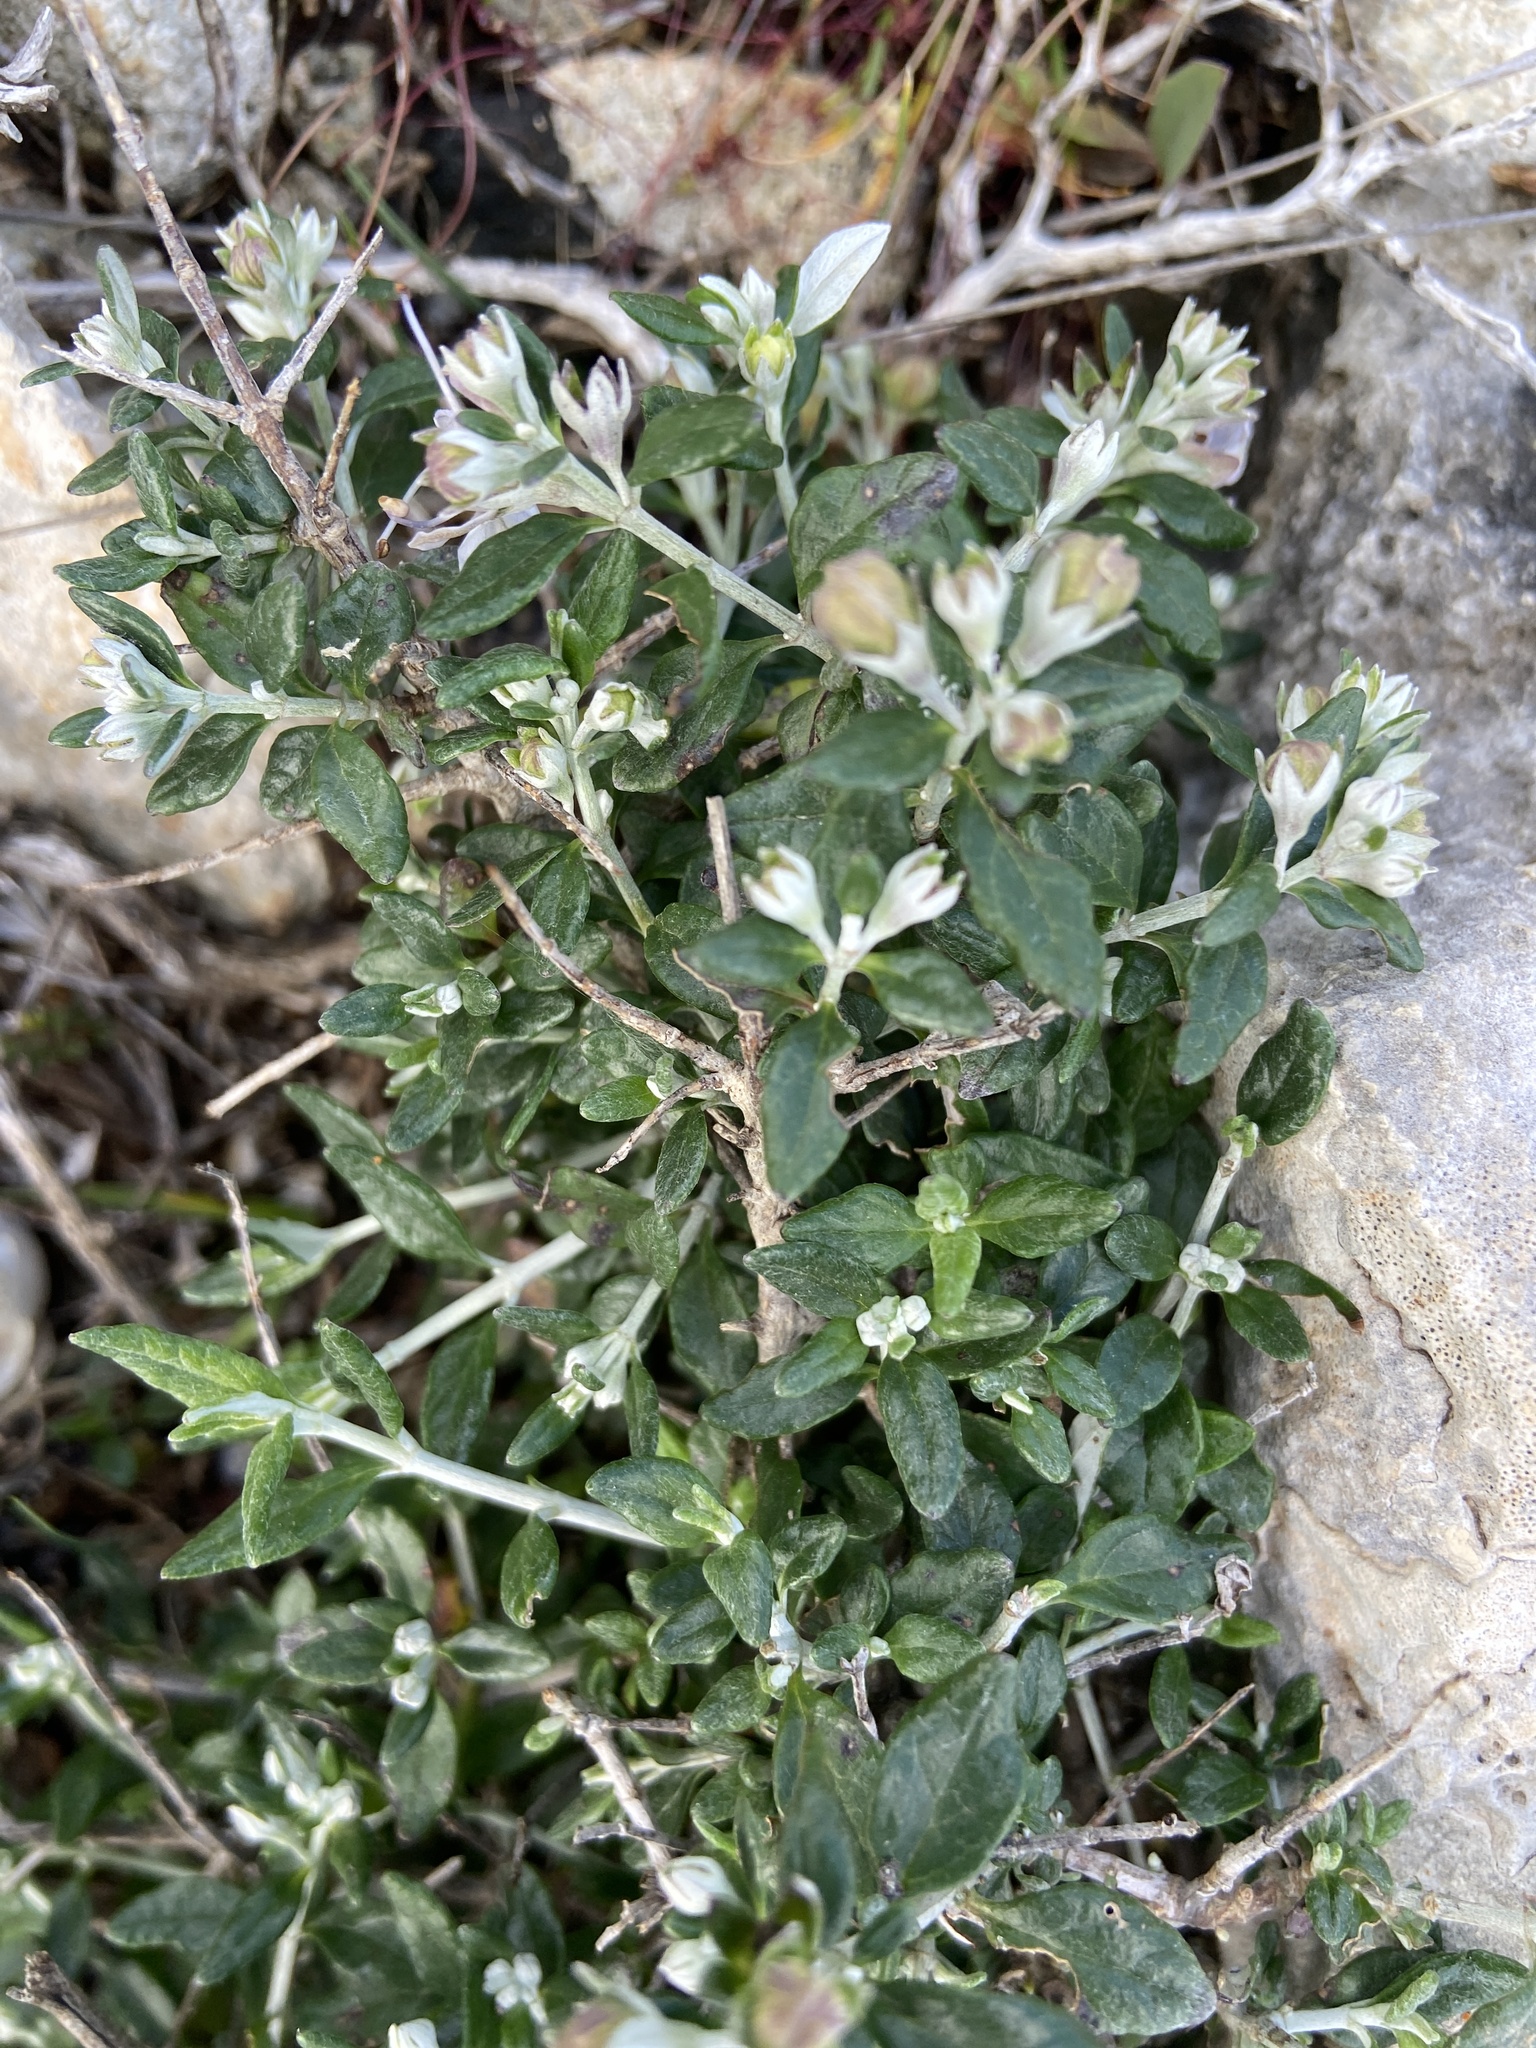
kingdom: Plantae
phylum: Tracheophyta
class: Magnoliopsida
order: Lamiales
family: Lamiaceae
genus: Teucrium
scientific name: Teucrium fruticans
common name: Shrubby germander
